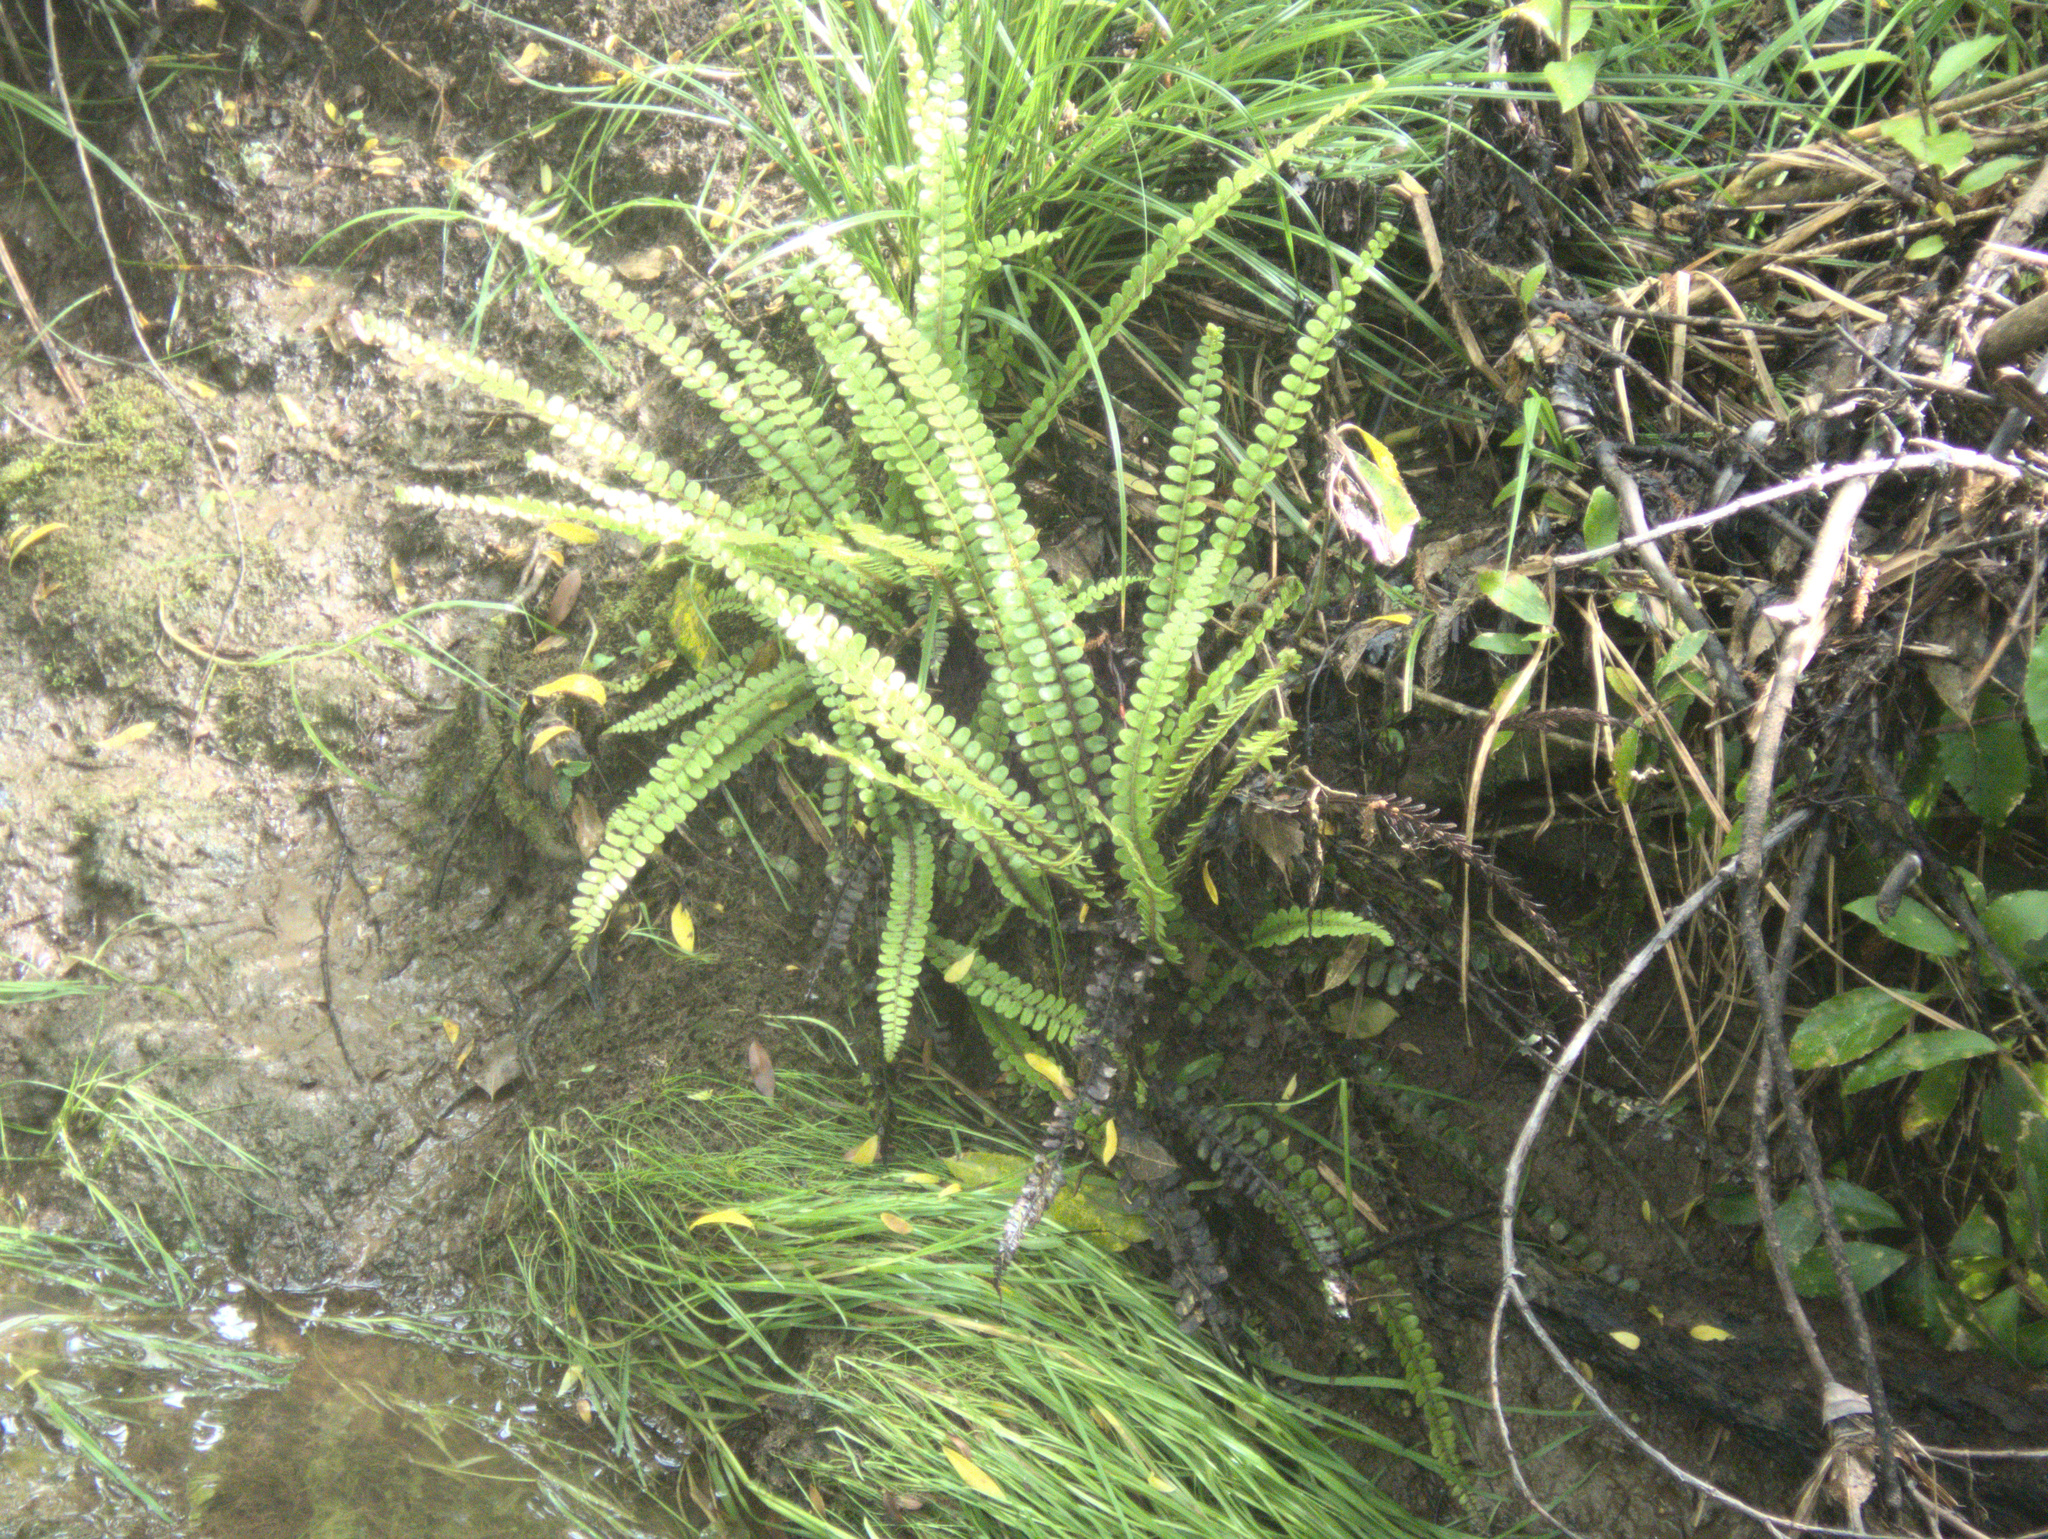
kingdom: Plantae
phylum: Tracheophyta
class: Polypodiopsida
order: Polypodiales
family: Blechnaceae
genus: Cranfillia
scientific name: Cranfillia fluviatilis
